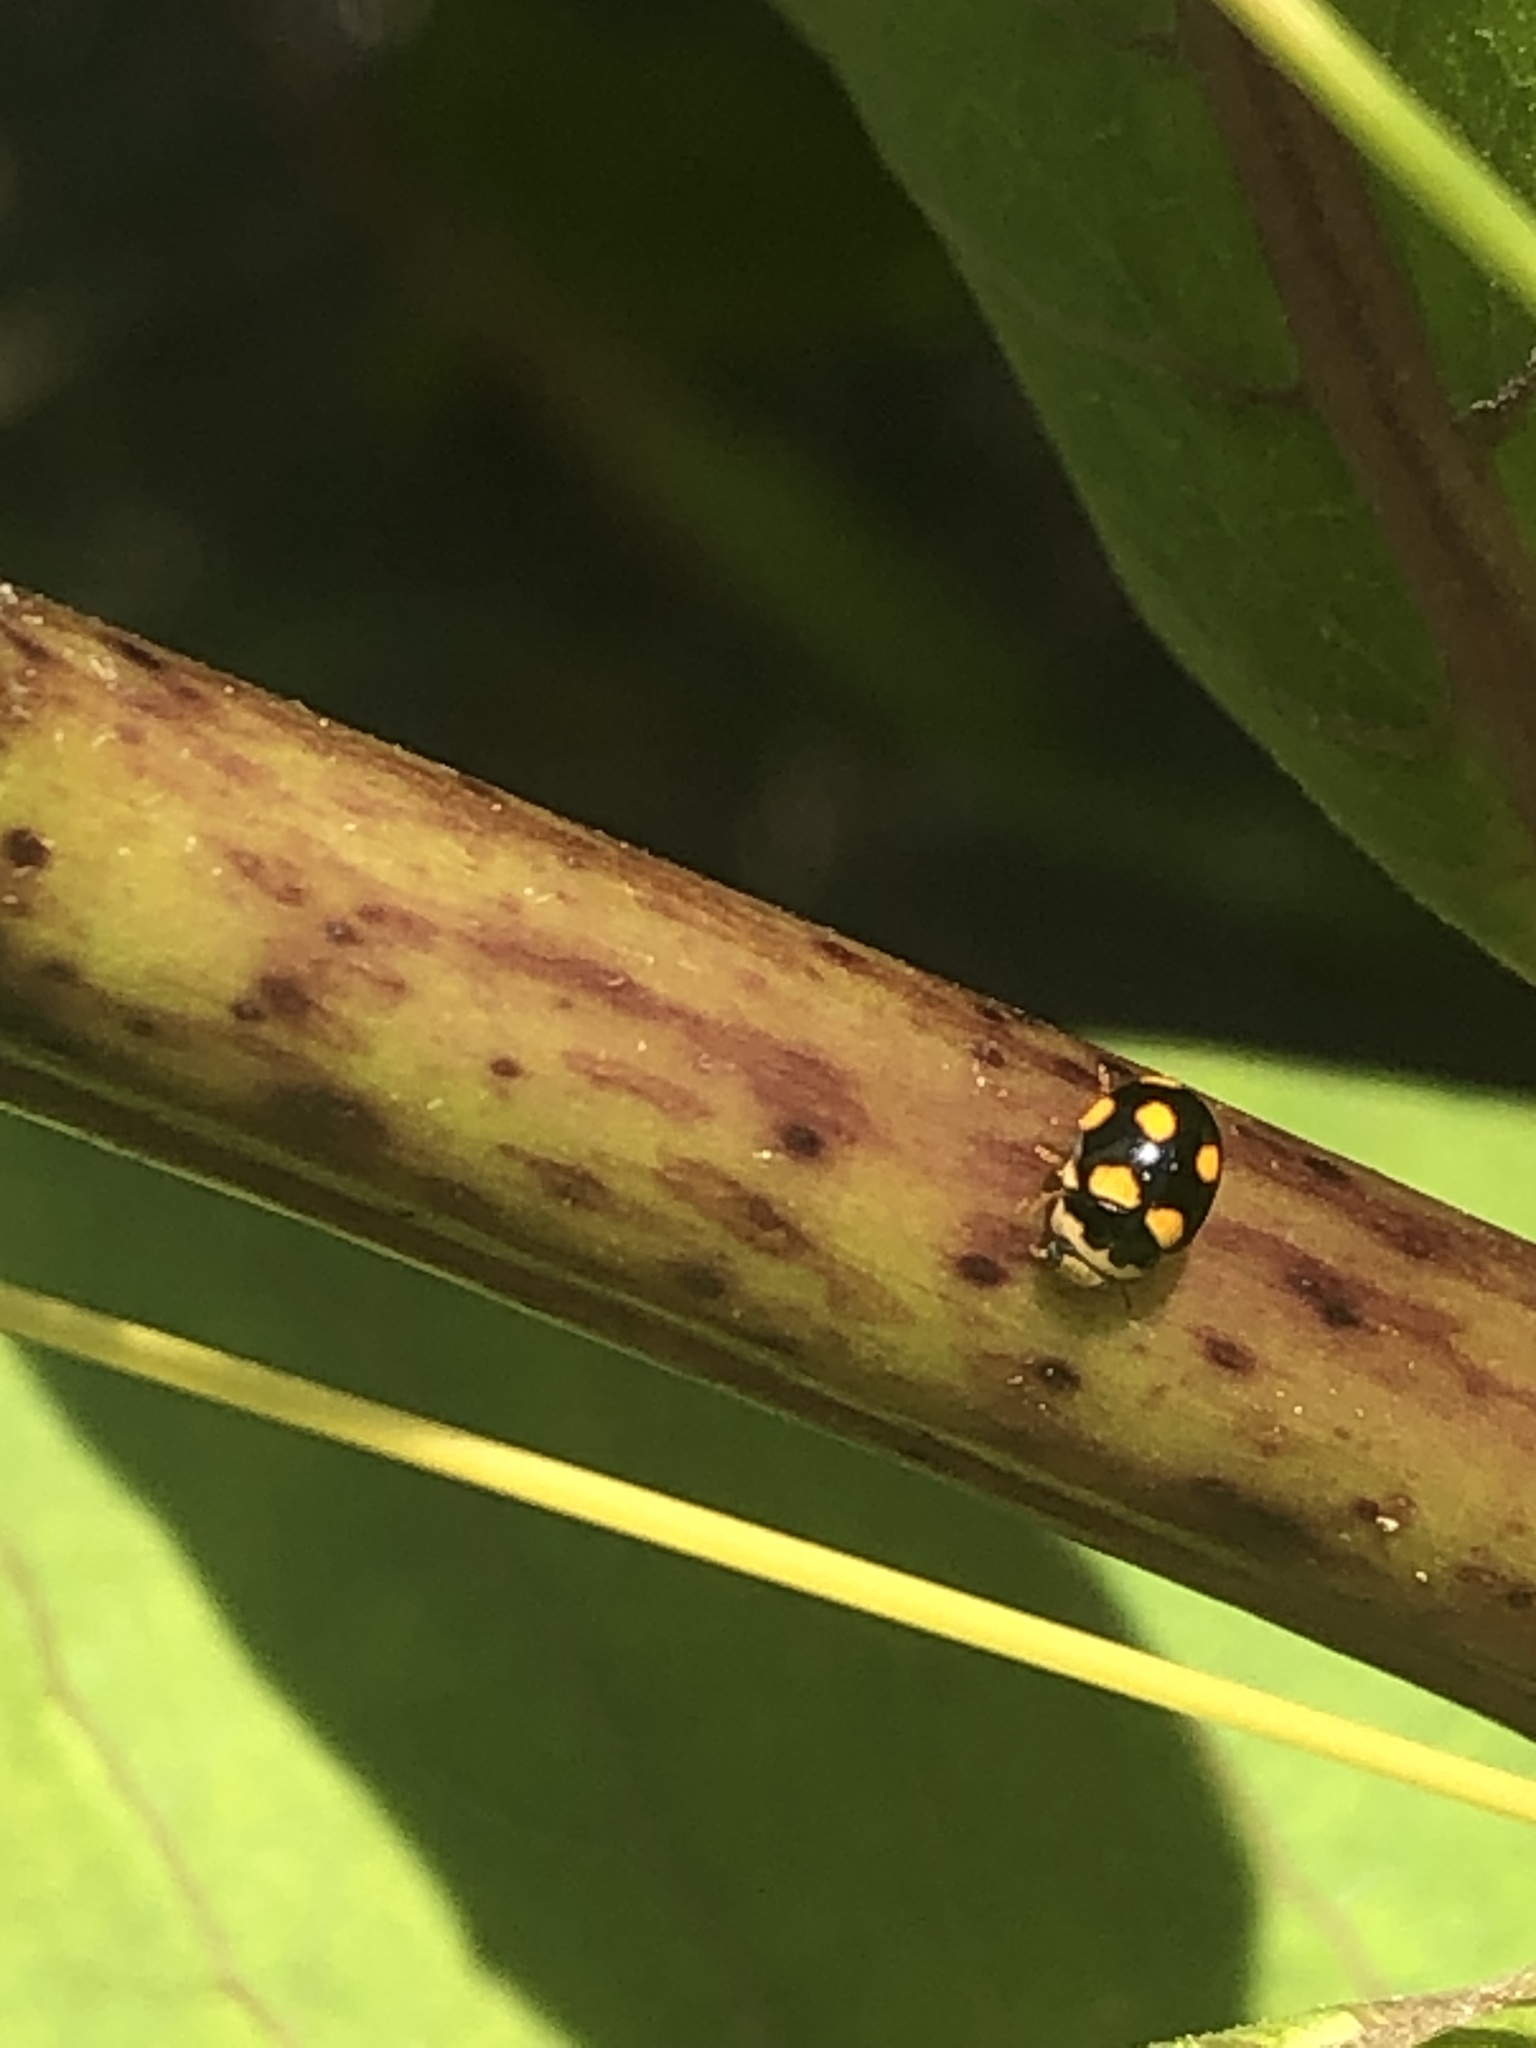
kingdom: Animalia
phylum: Arthropoda
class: Insecta
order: Coleoptera
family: Coccinellidae
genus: Brachiacantha
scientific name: Brachiacantha ursina
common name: Ursine spurleg lady beetle
